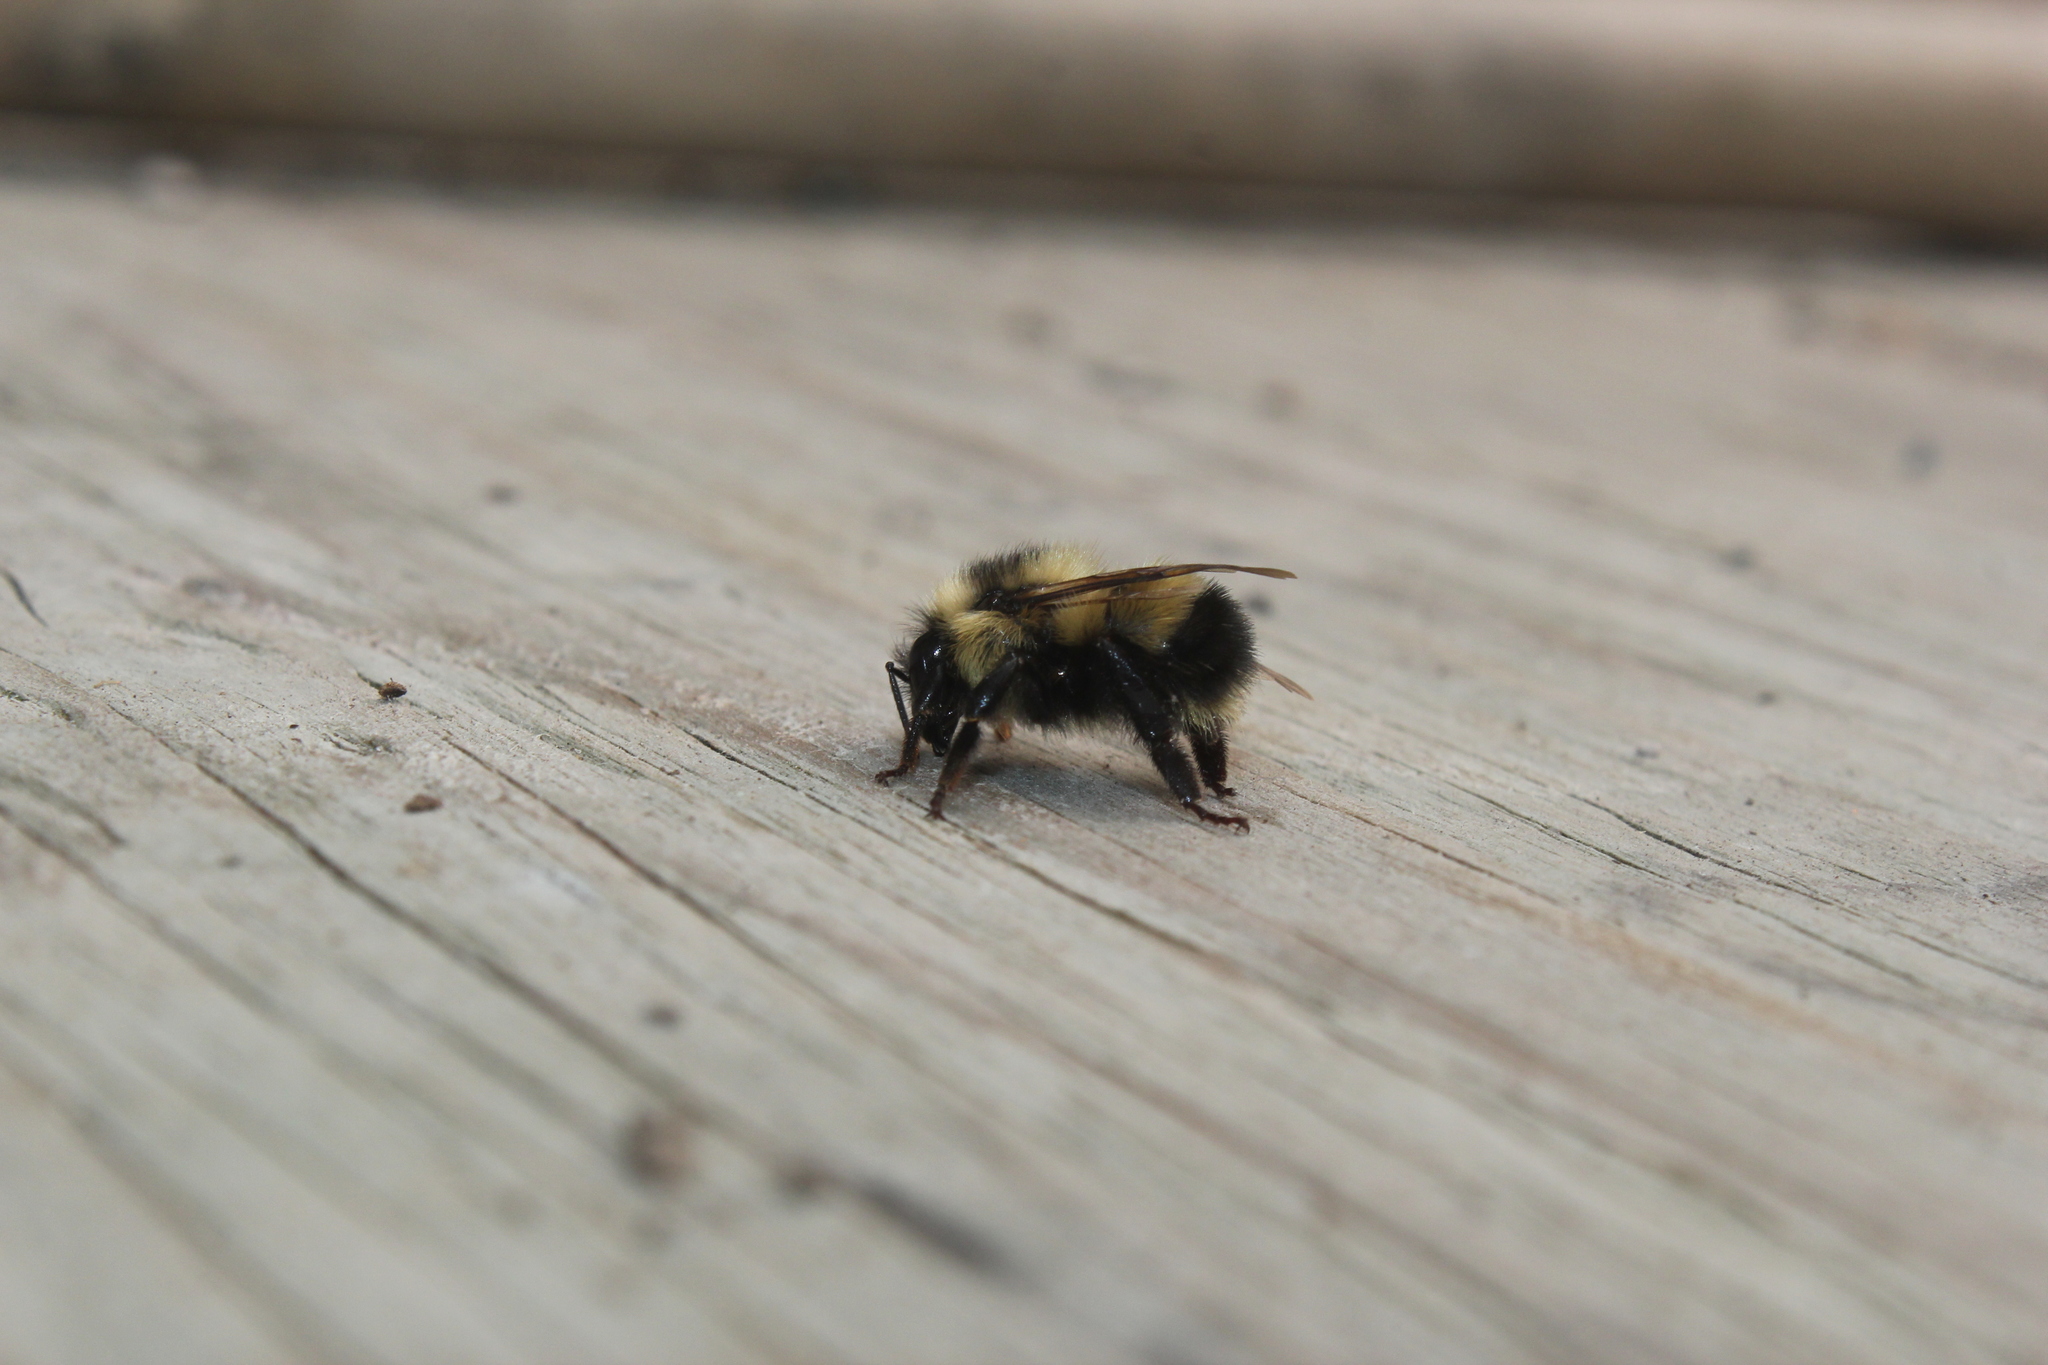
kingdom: Animalia
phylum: Arthropoda
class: Insecta
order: Hymenoptera
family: Apidae
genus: Bombus
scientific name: Bombus sandersoni
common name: Sanderson bumble bee
